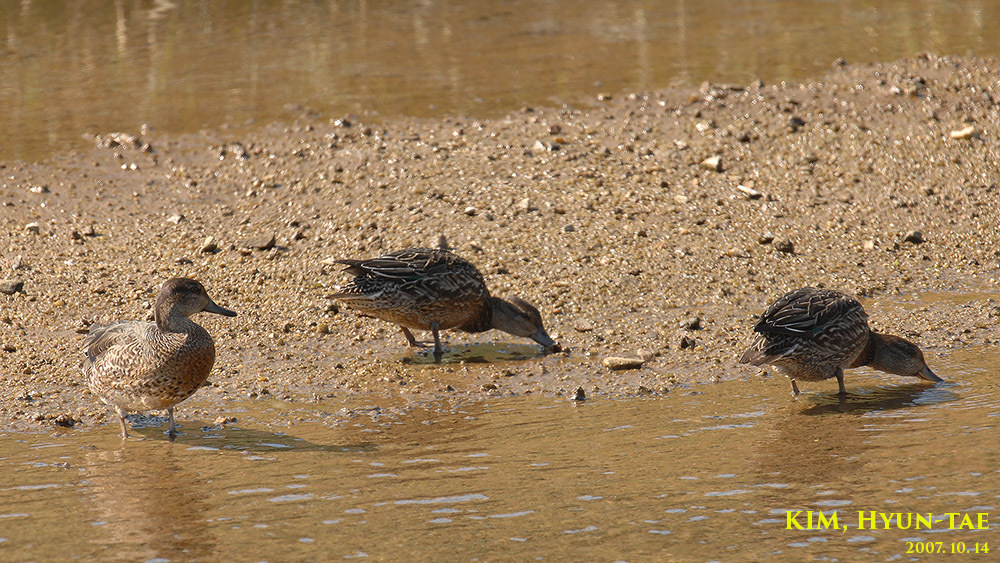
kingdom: Animalia
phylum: Chordata
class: Aves
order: Anseriformes
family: Anatidae
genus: Anas
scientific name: Anas crecca
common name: Eurasian teal
